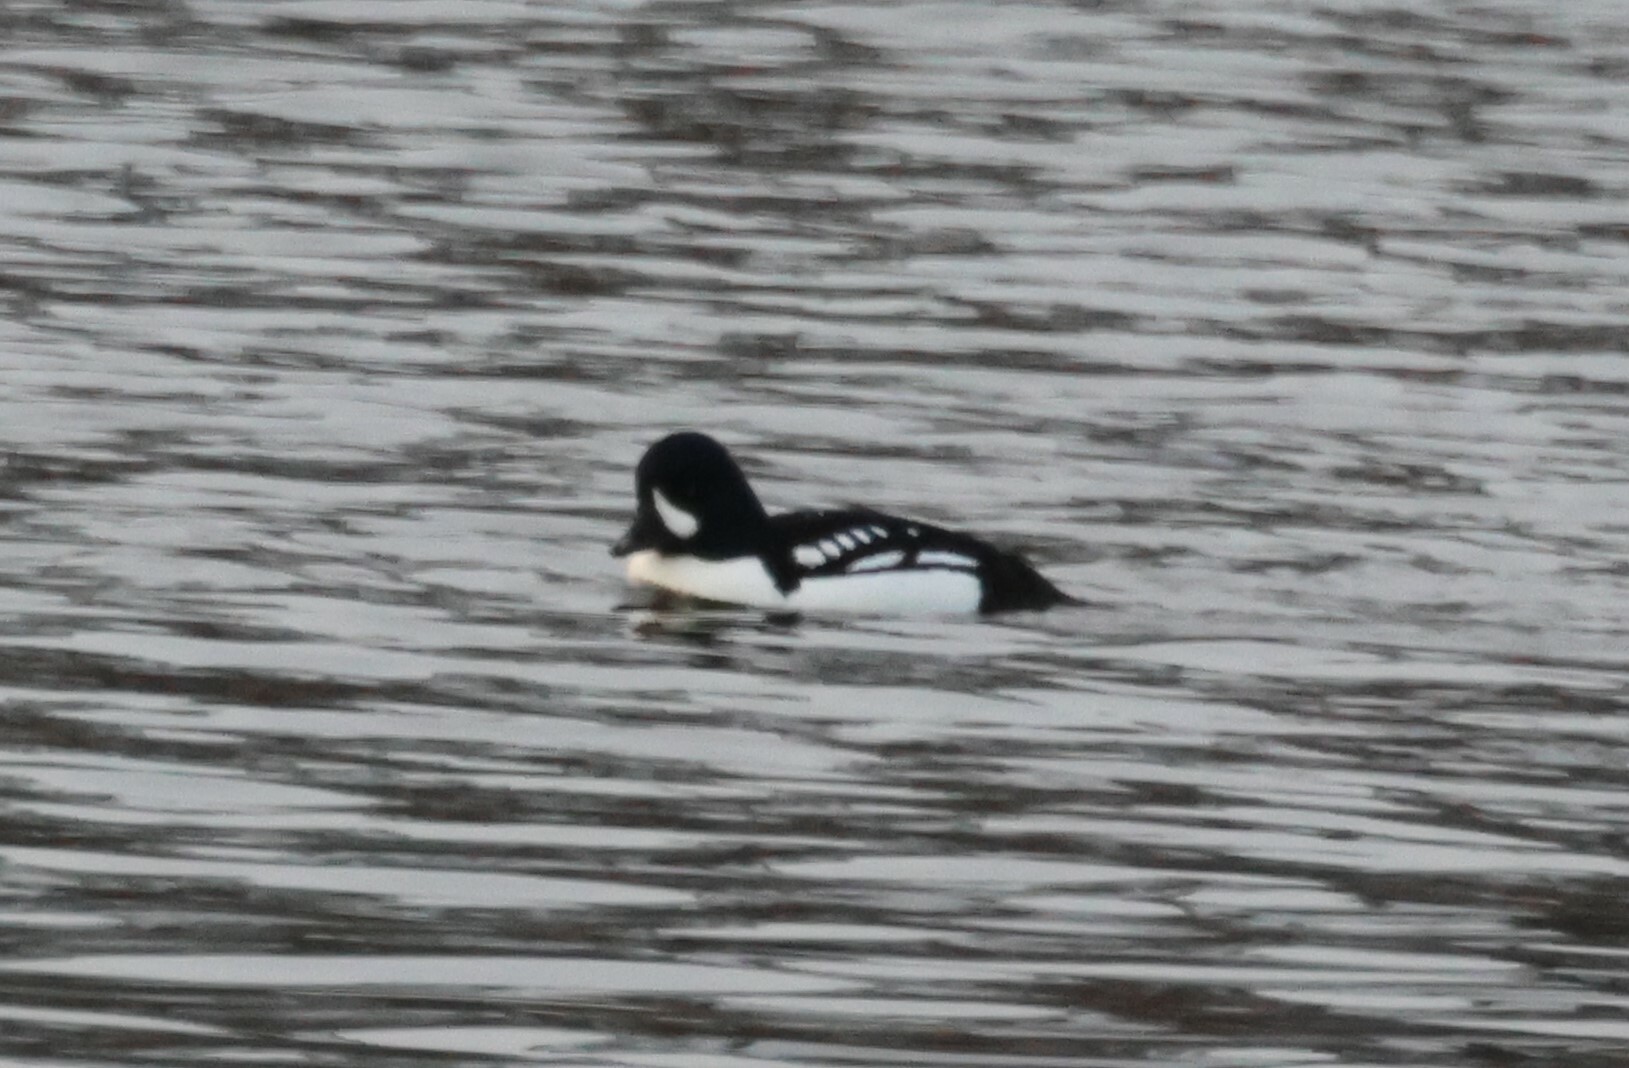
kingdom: Animalia
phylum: Chordata
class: Aves
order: Anseriformes
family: Anatidae
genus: Bucephala
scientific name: Bucephala islandica
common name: Barrow's goldeneye
